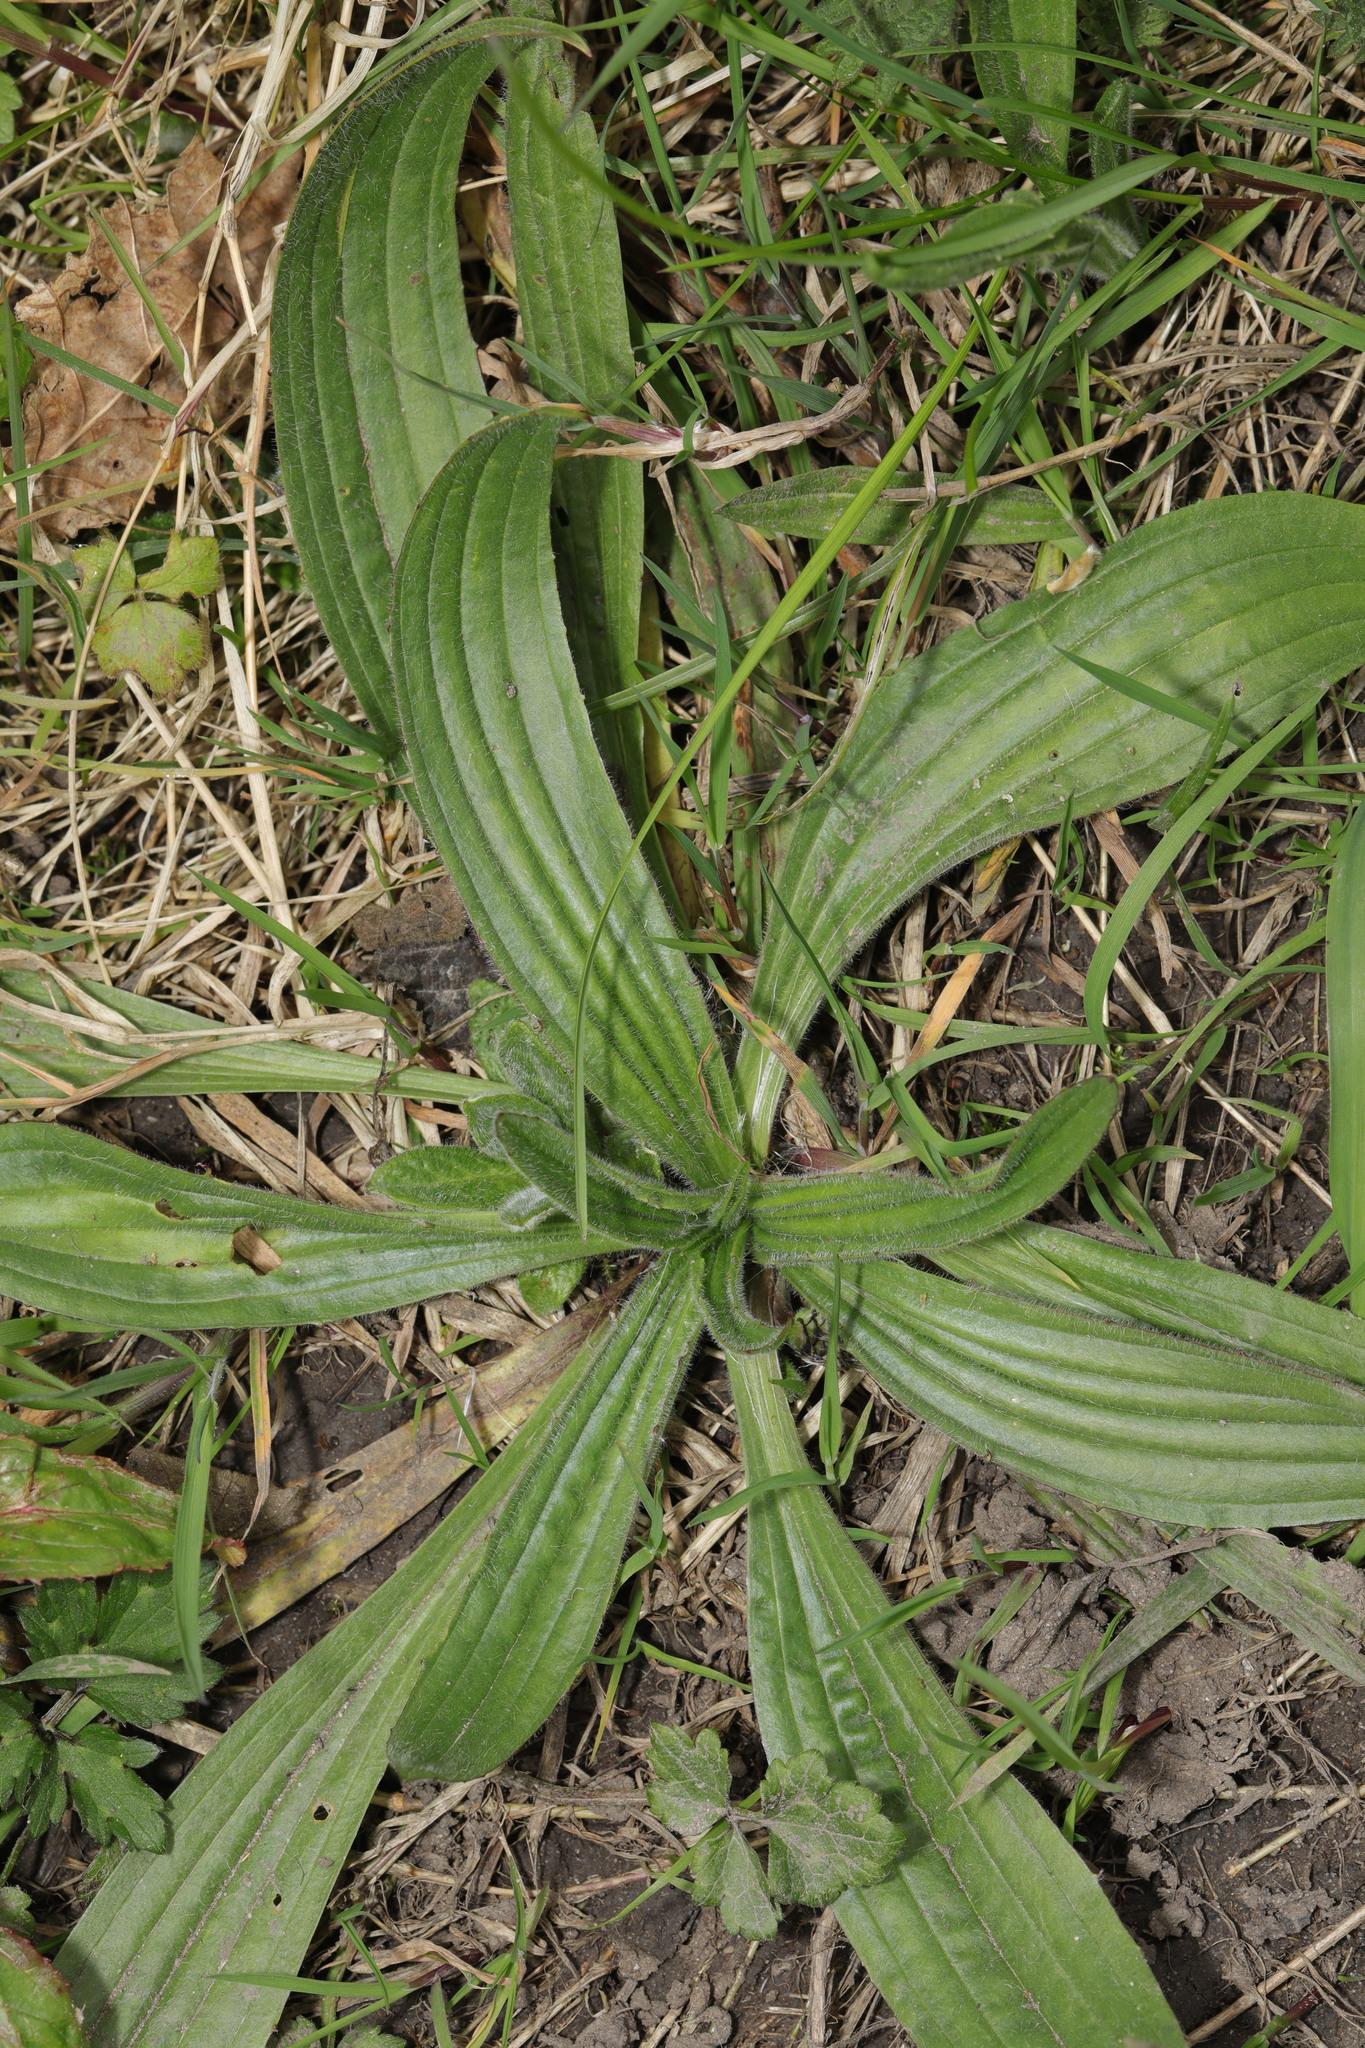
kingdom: Plantae
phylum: Tracheophyta
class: Magnoliopsida
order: Lamiales
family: Plantaginaceae
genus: Plantago
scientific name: Plantago lanceolata
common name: Ribwort plantain
